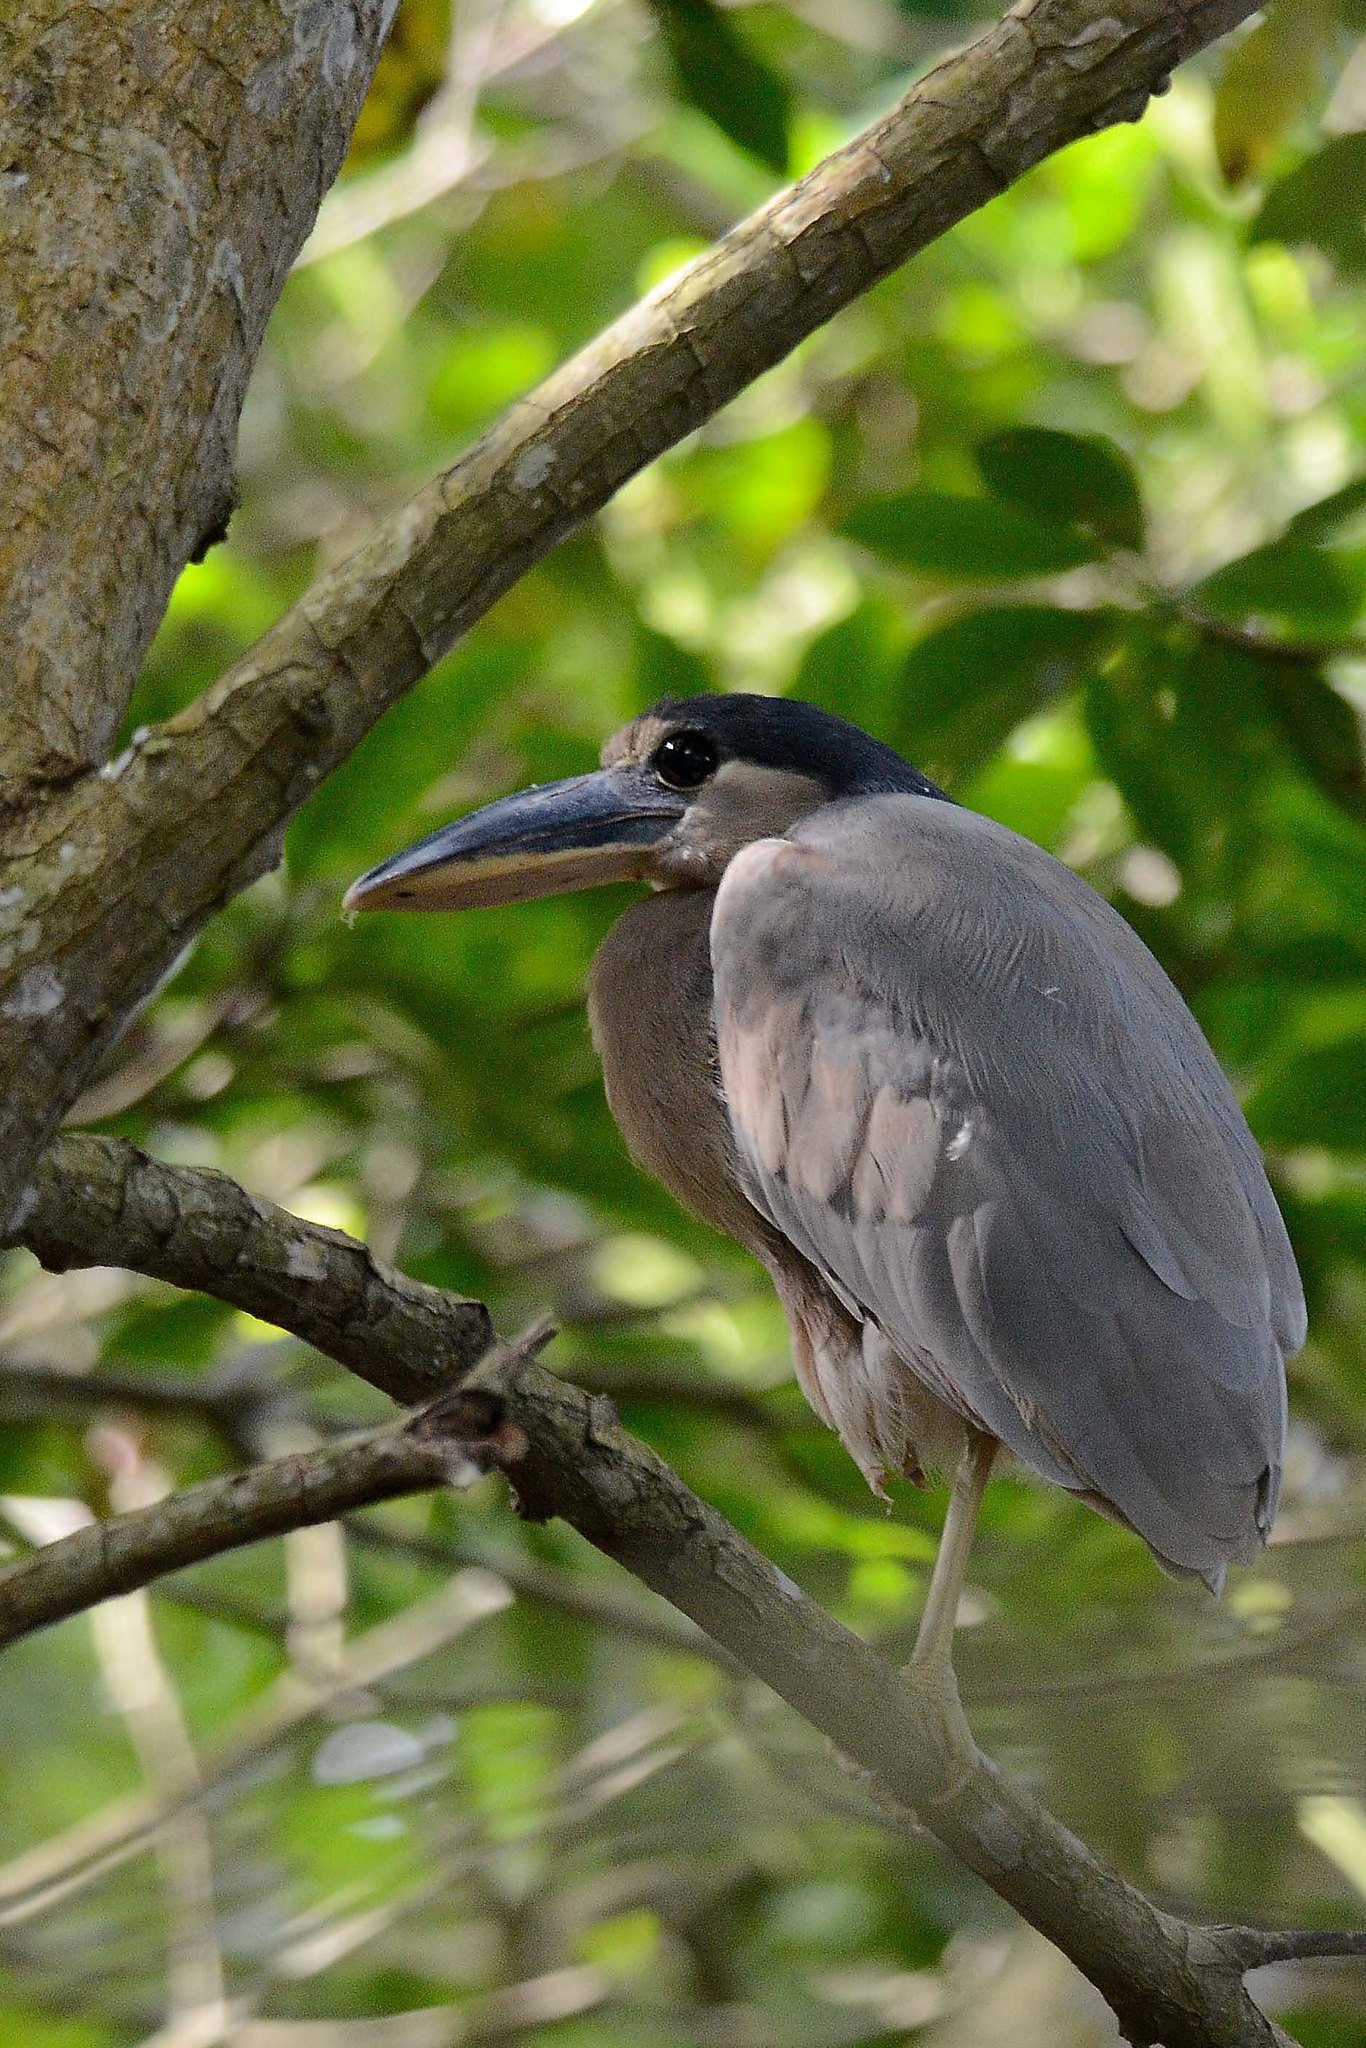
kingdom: Animalia
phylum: Chordata
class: Aves
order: Pelecaniformes
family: Ardeidae
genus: Cochlearius
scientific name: Cochlearius cochlearius
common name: Boat-billed heron
